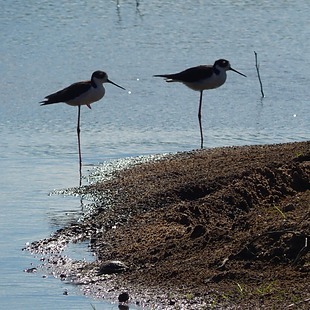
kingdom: Animalia
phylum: Chordata
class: Aves
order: Charadriiformes
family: Recurvirostridae
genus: Himantopus
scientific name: Himantopus mexicanus
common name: Black-necked stilt
